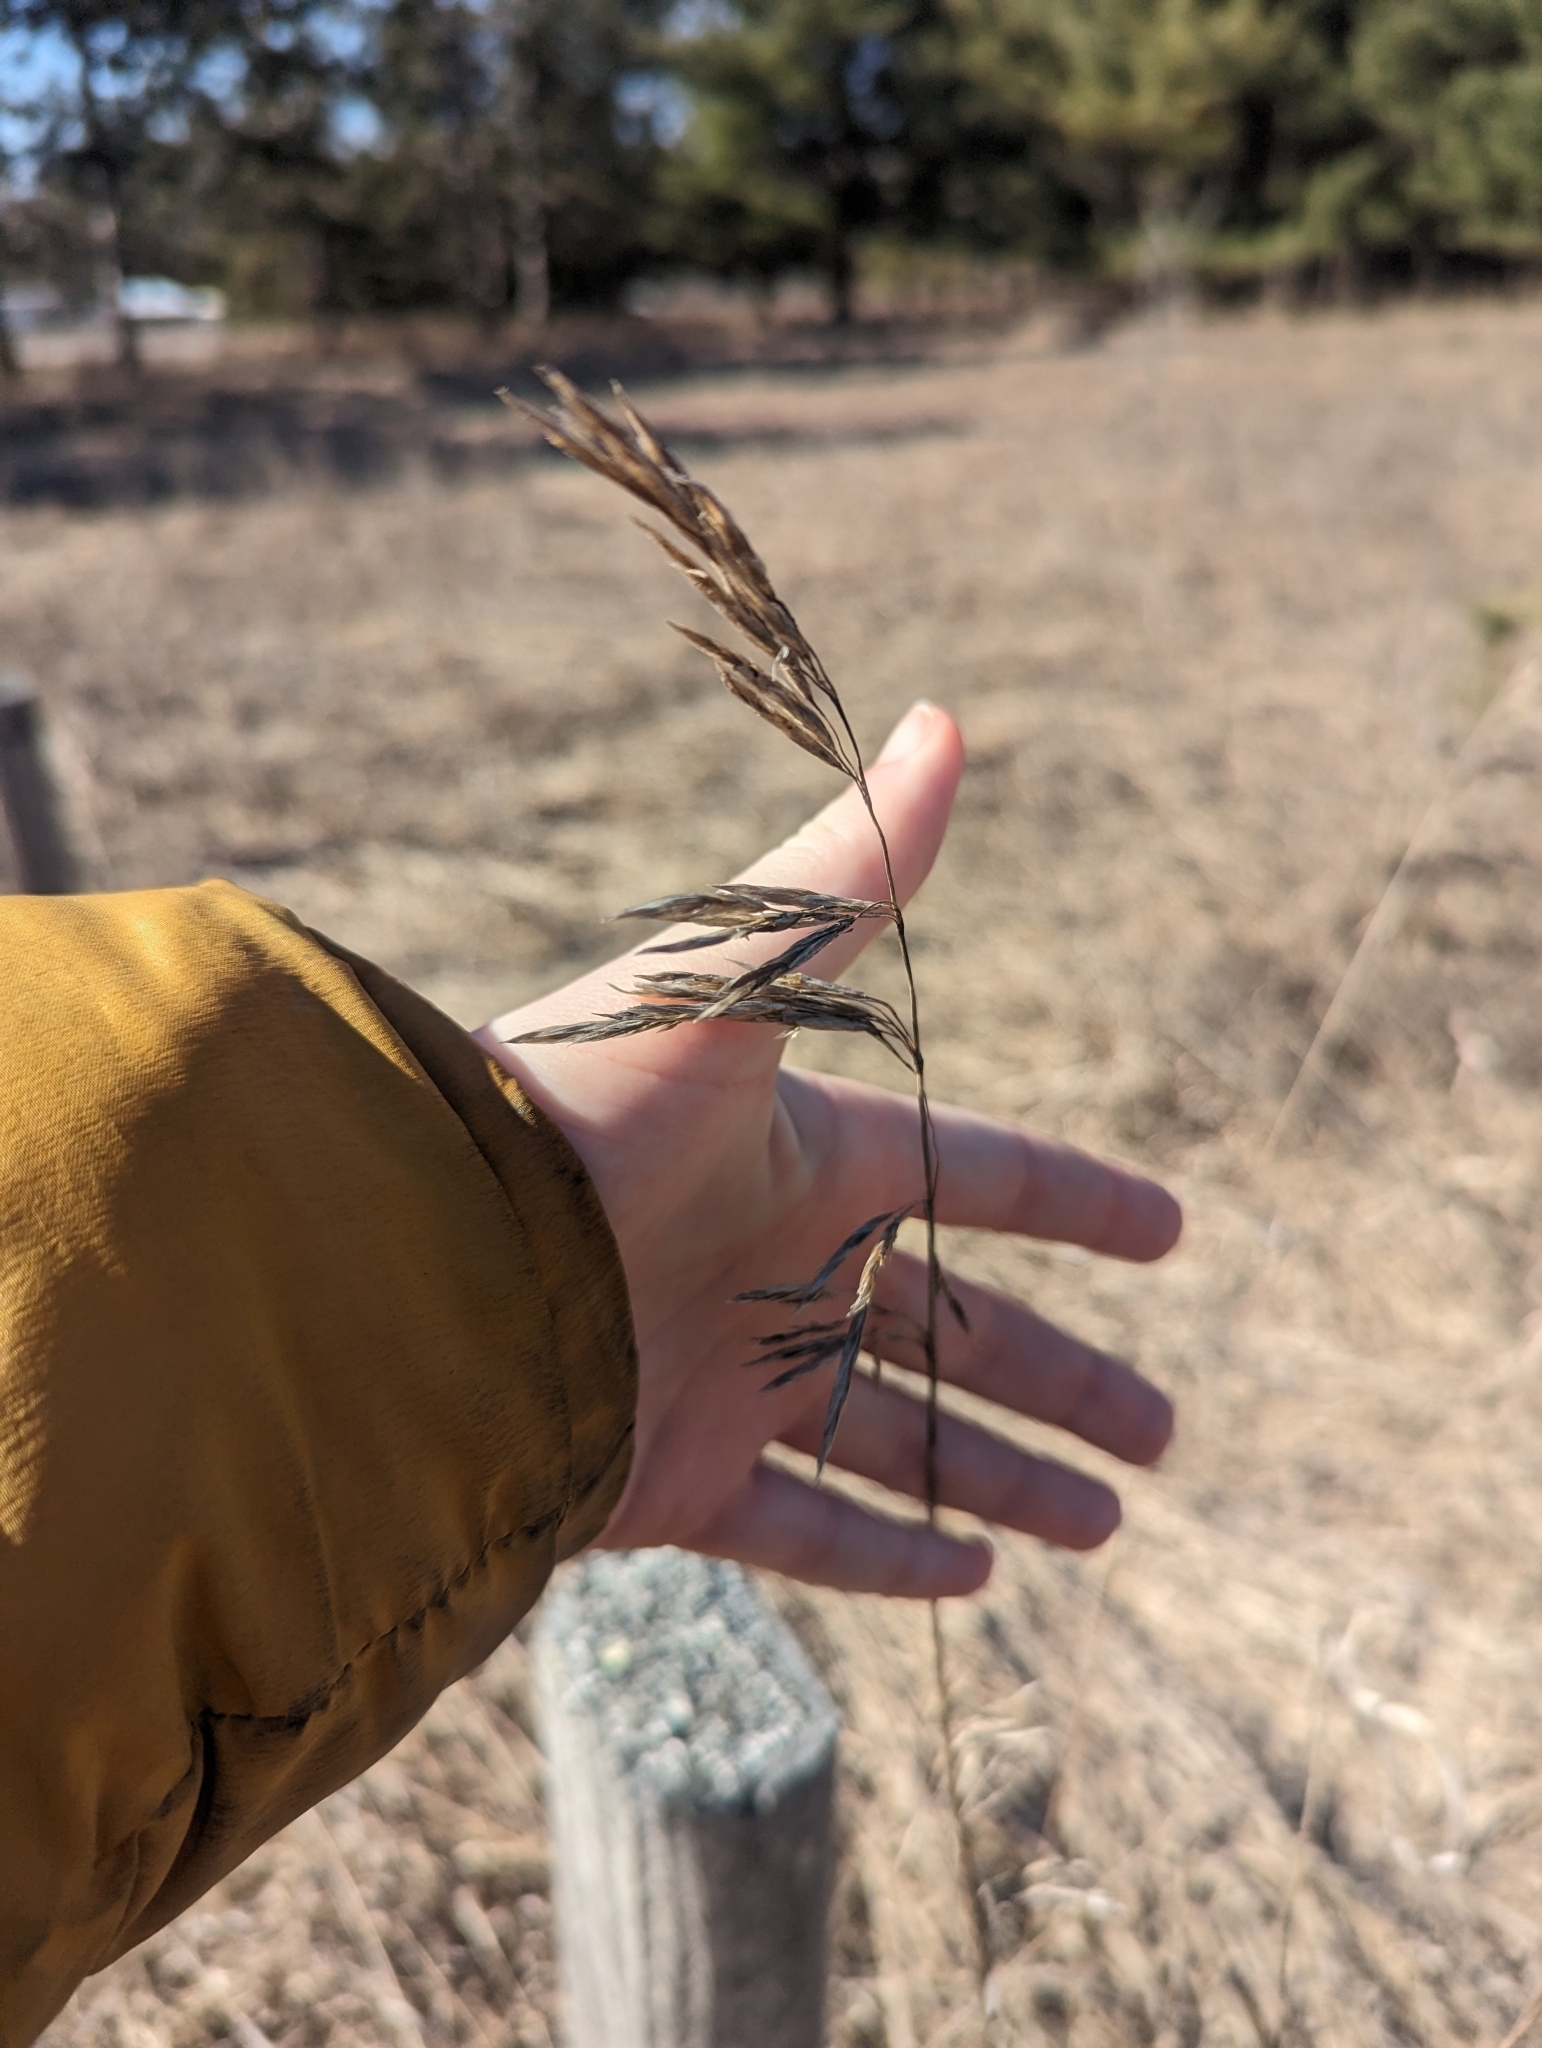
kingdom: Plantae
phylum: Tracheophyta
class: Liliopsida
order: Poales
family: Poaceae
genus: Bromus
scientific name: Bromus inermis
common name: Smooth brome
